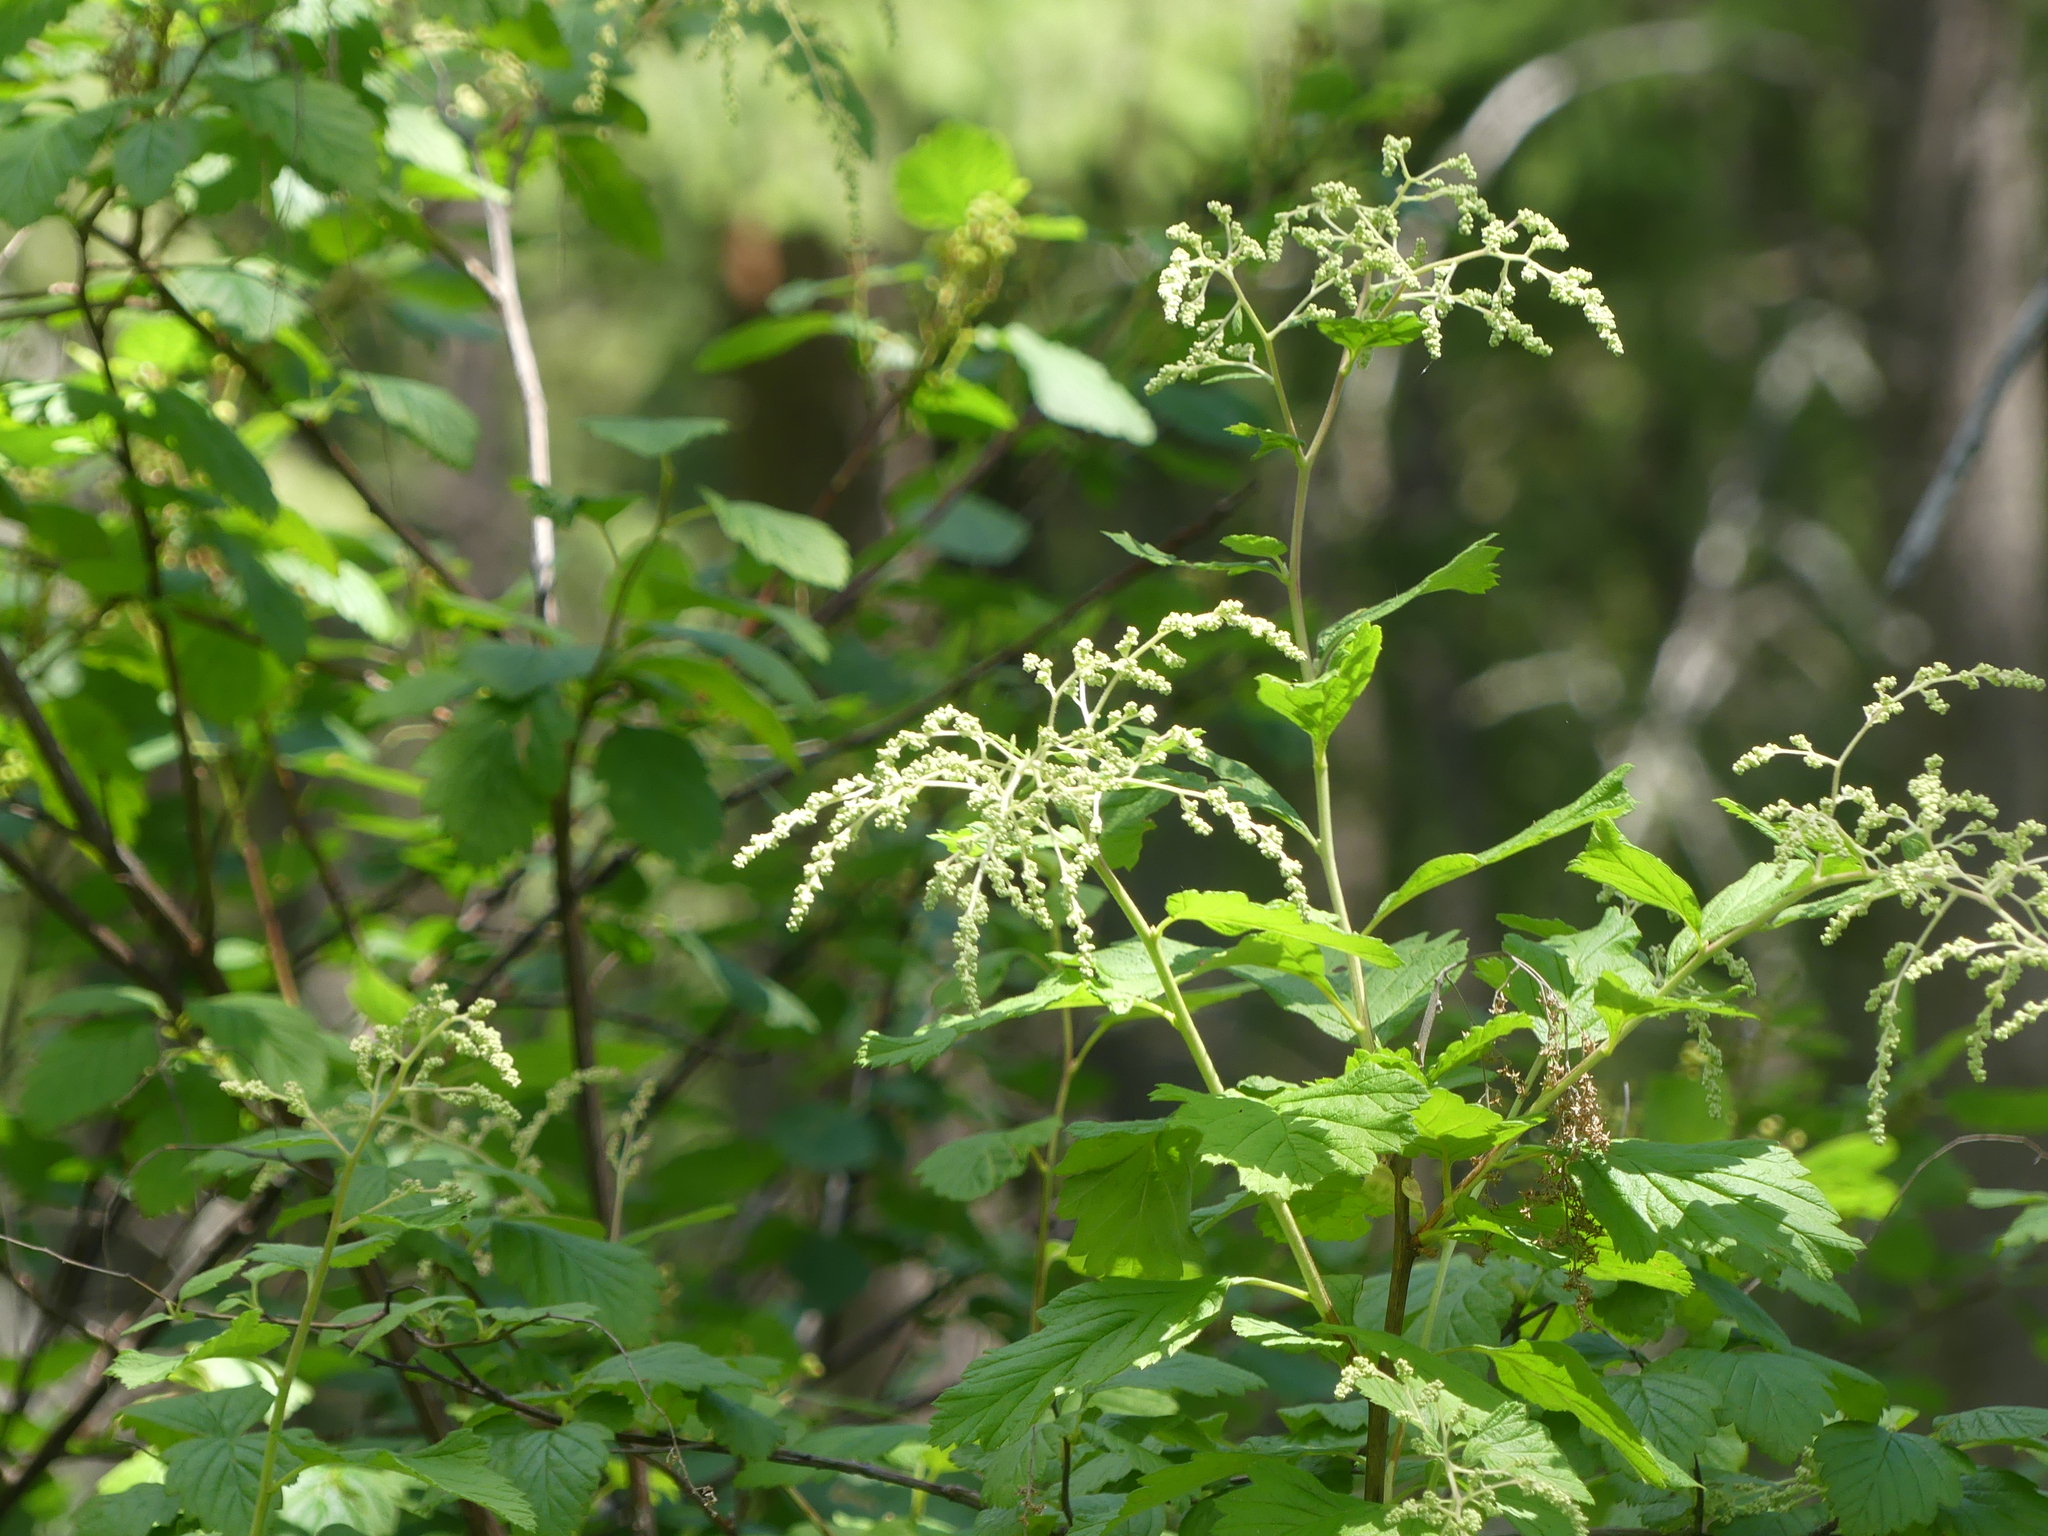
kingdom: Plantae
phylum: Tracheophyta
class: Magnoliopsida
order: Rosales
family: Rosaceae
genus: Holodiscus
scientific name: Holodiscus discolor
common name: Oceanspray
